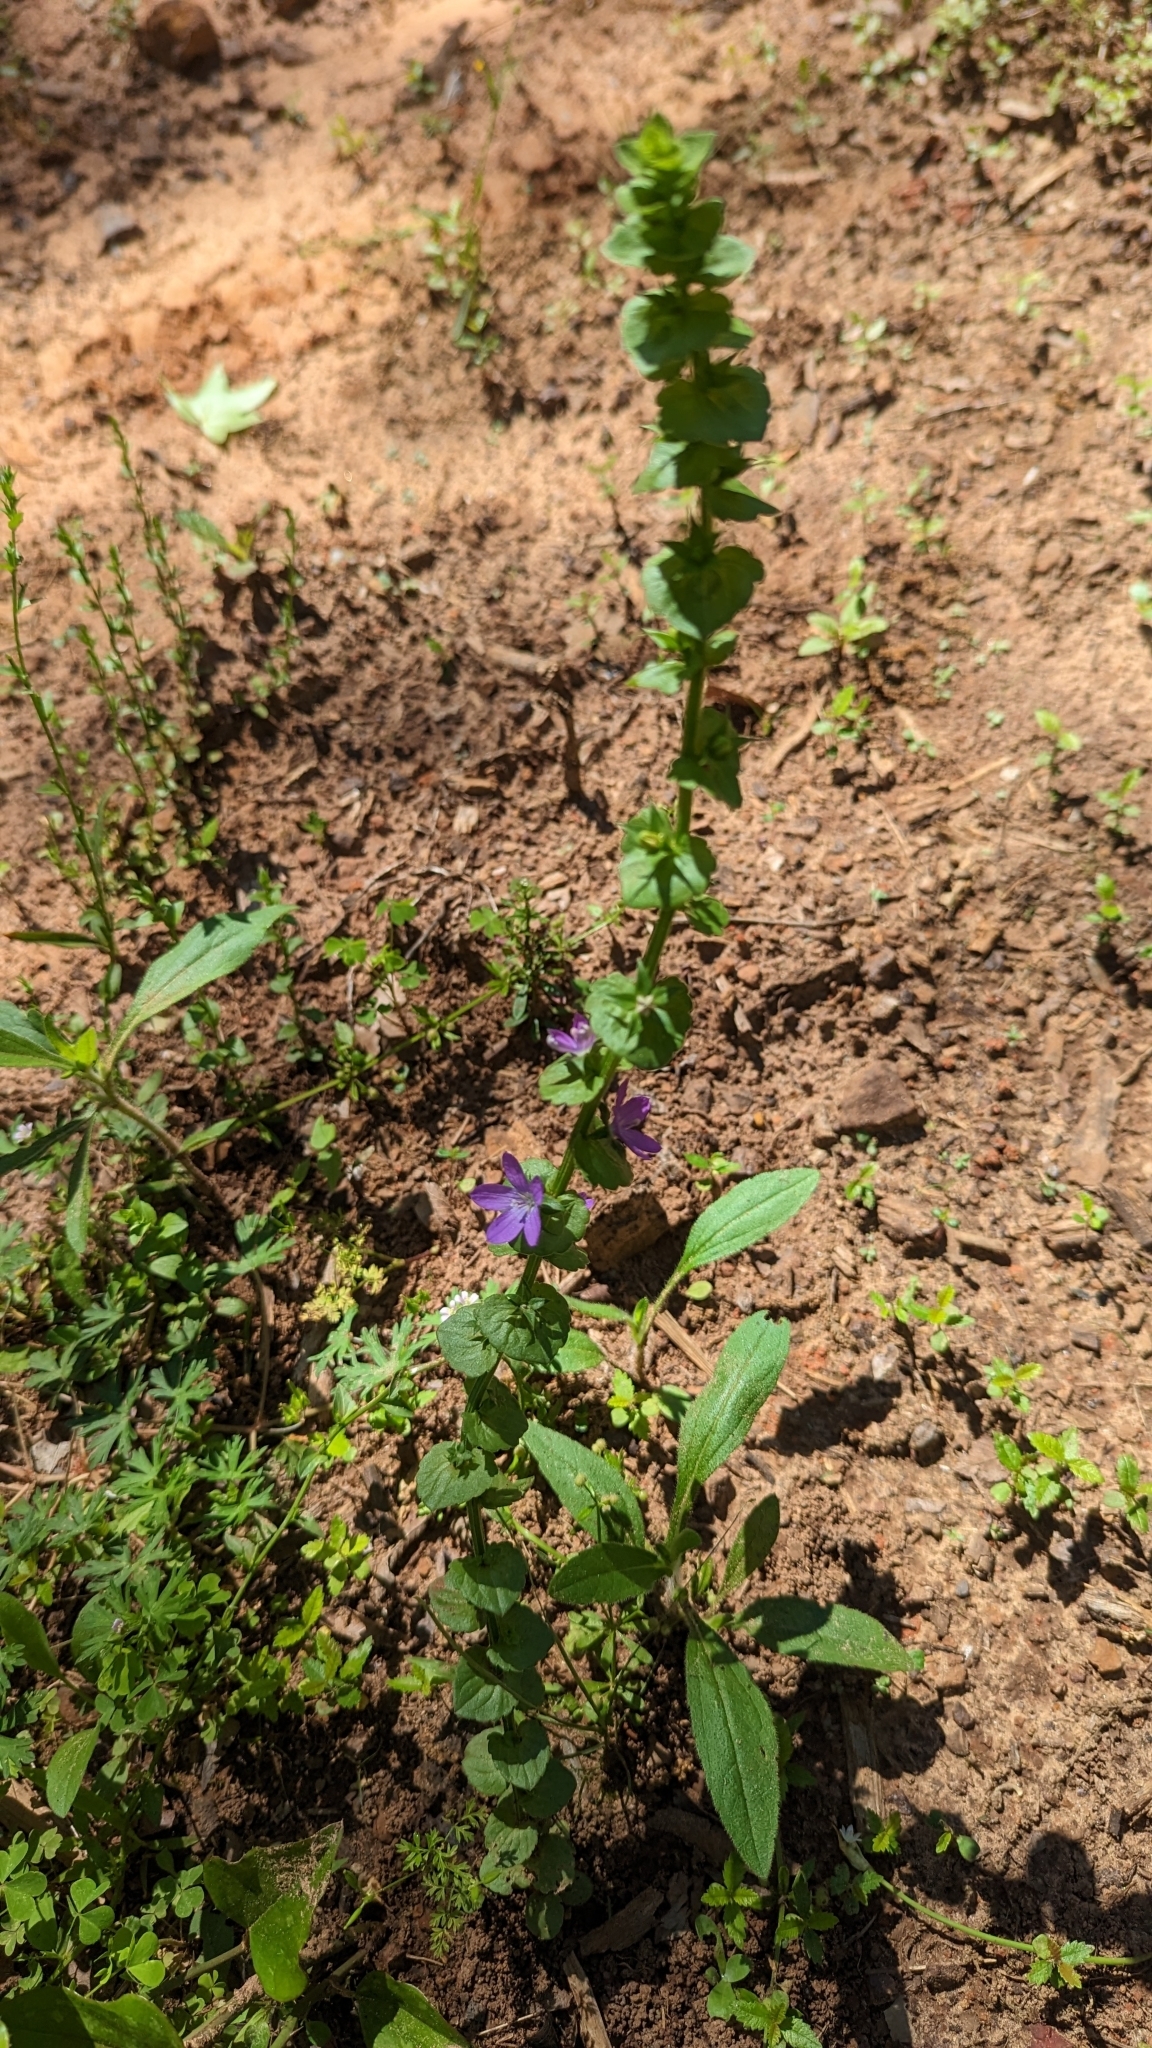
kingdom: Plantae
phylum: Tracheophyta
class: Magnoliopsida
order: Asterales
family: Campanulaceae
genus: Triodanis
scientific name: Triodanis perfoliata
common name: Clasping venus' looking-glass
